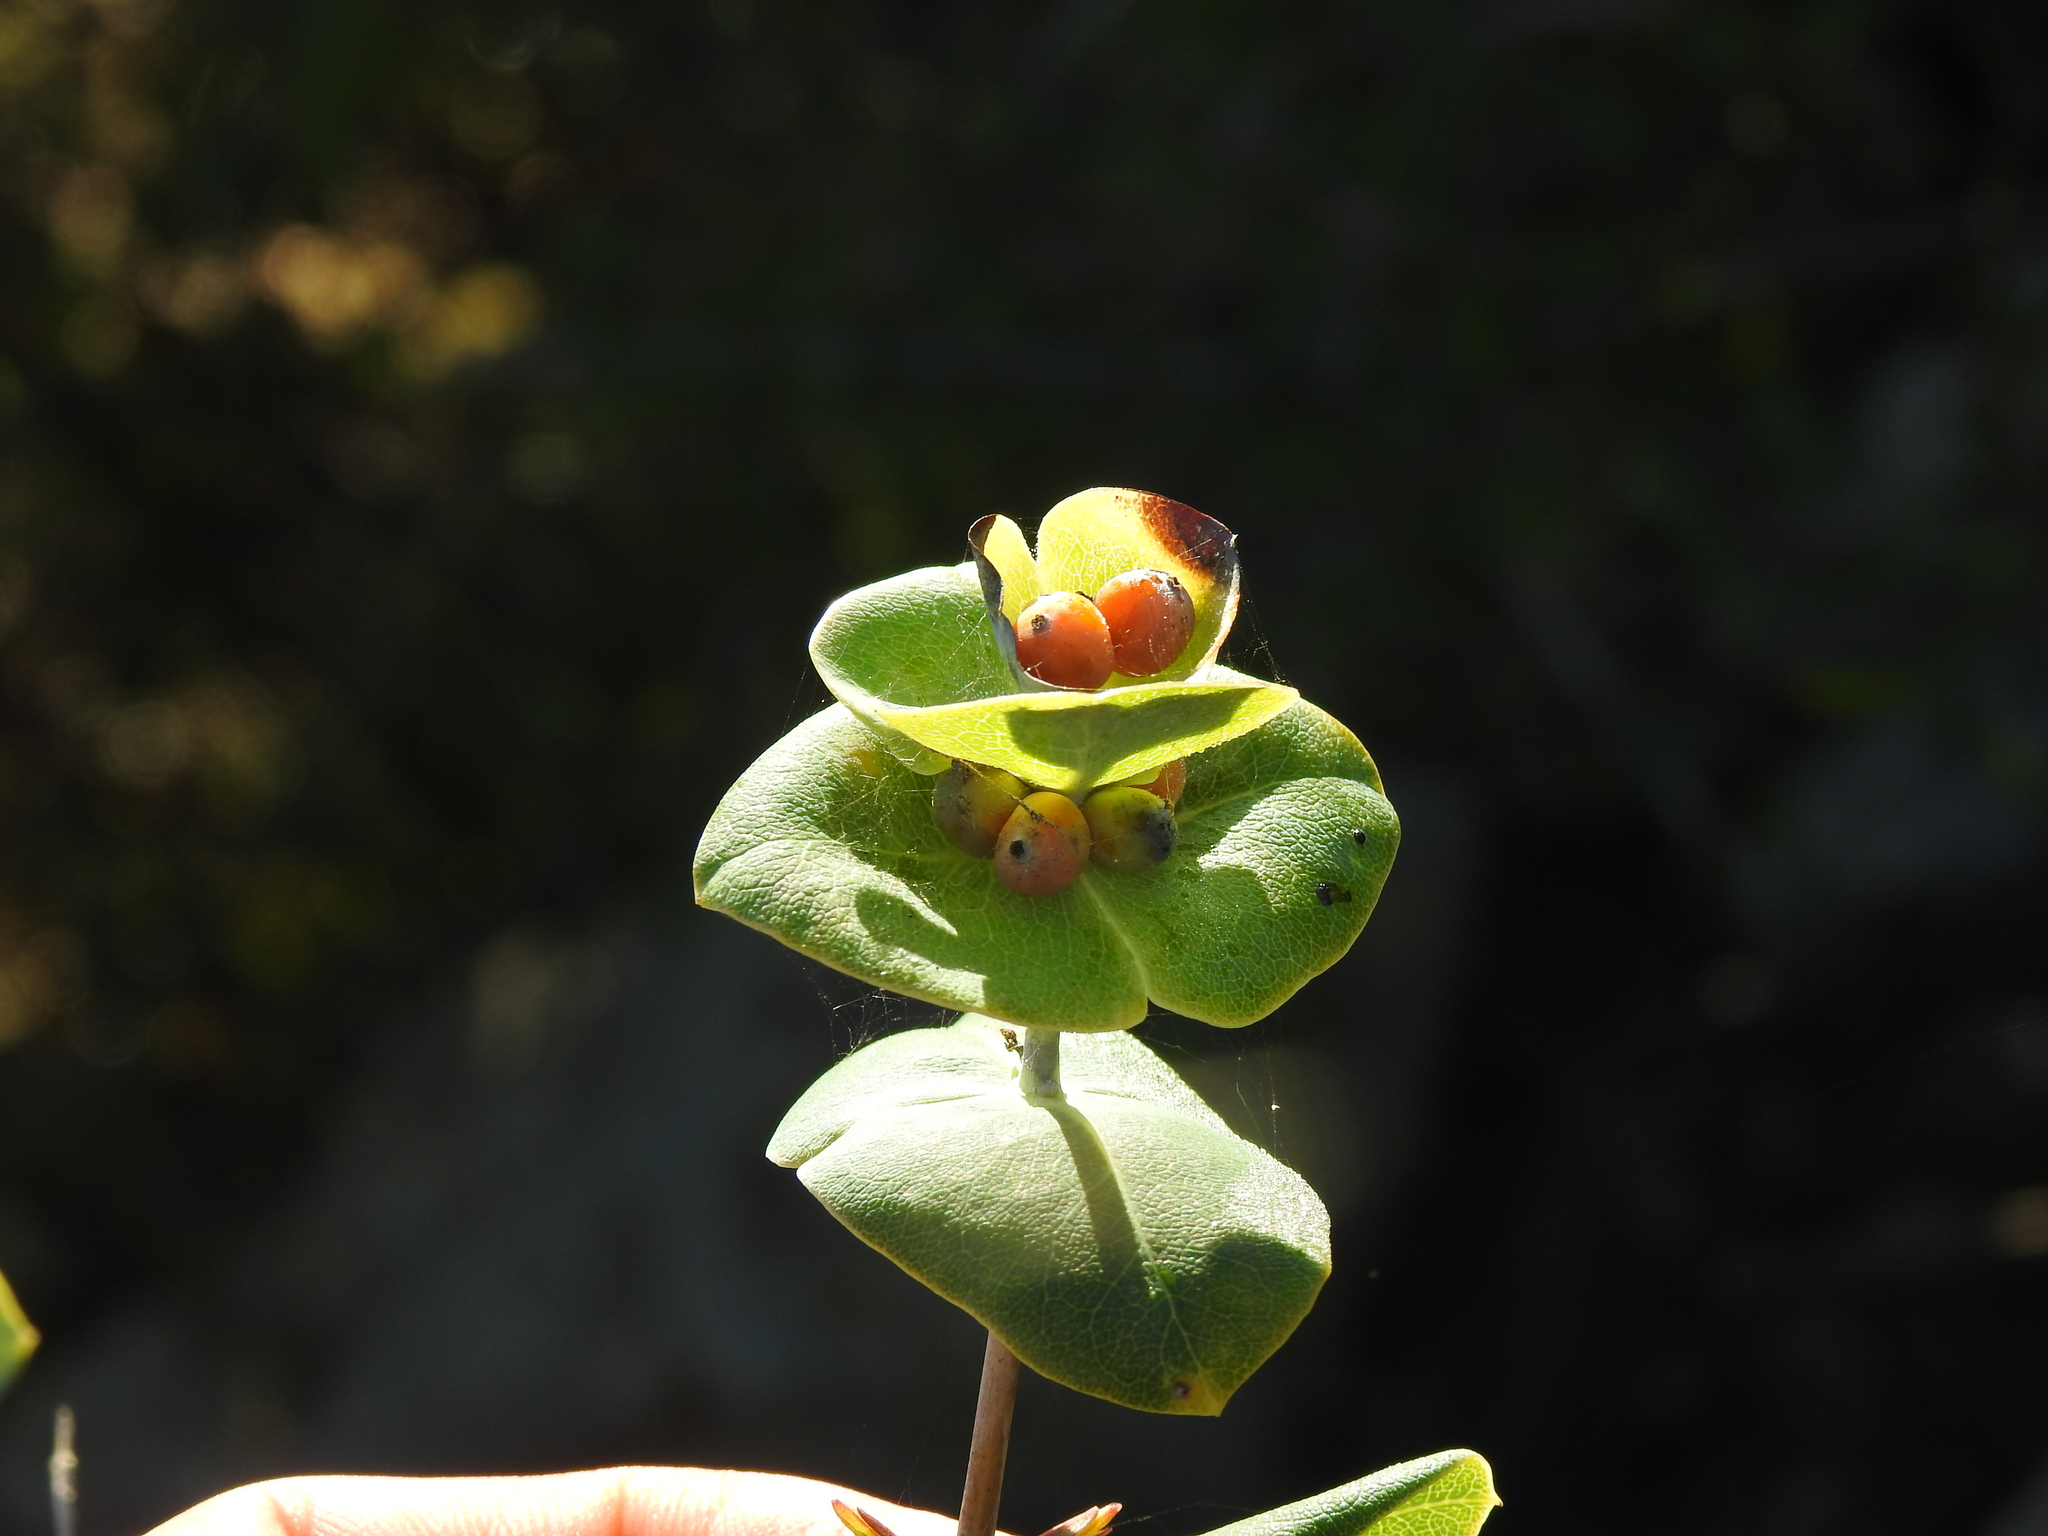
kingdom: Plantae
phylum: Tracheophyta
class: Magnoliopsida
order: Dipsacales
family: Caprifoliaceae
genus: Lonicera
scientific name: Lonicera implexa
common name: Minorca honeysuckle
